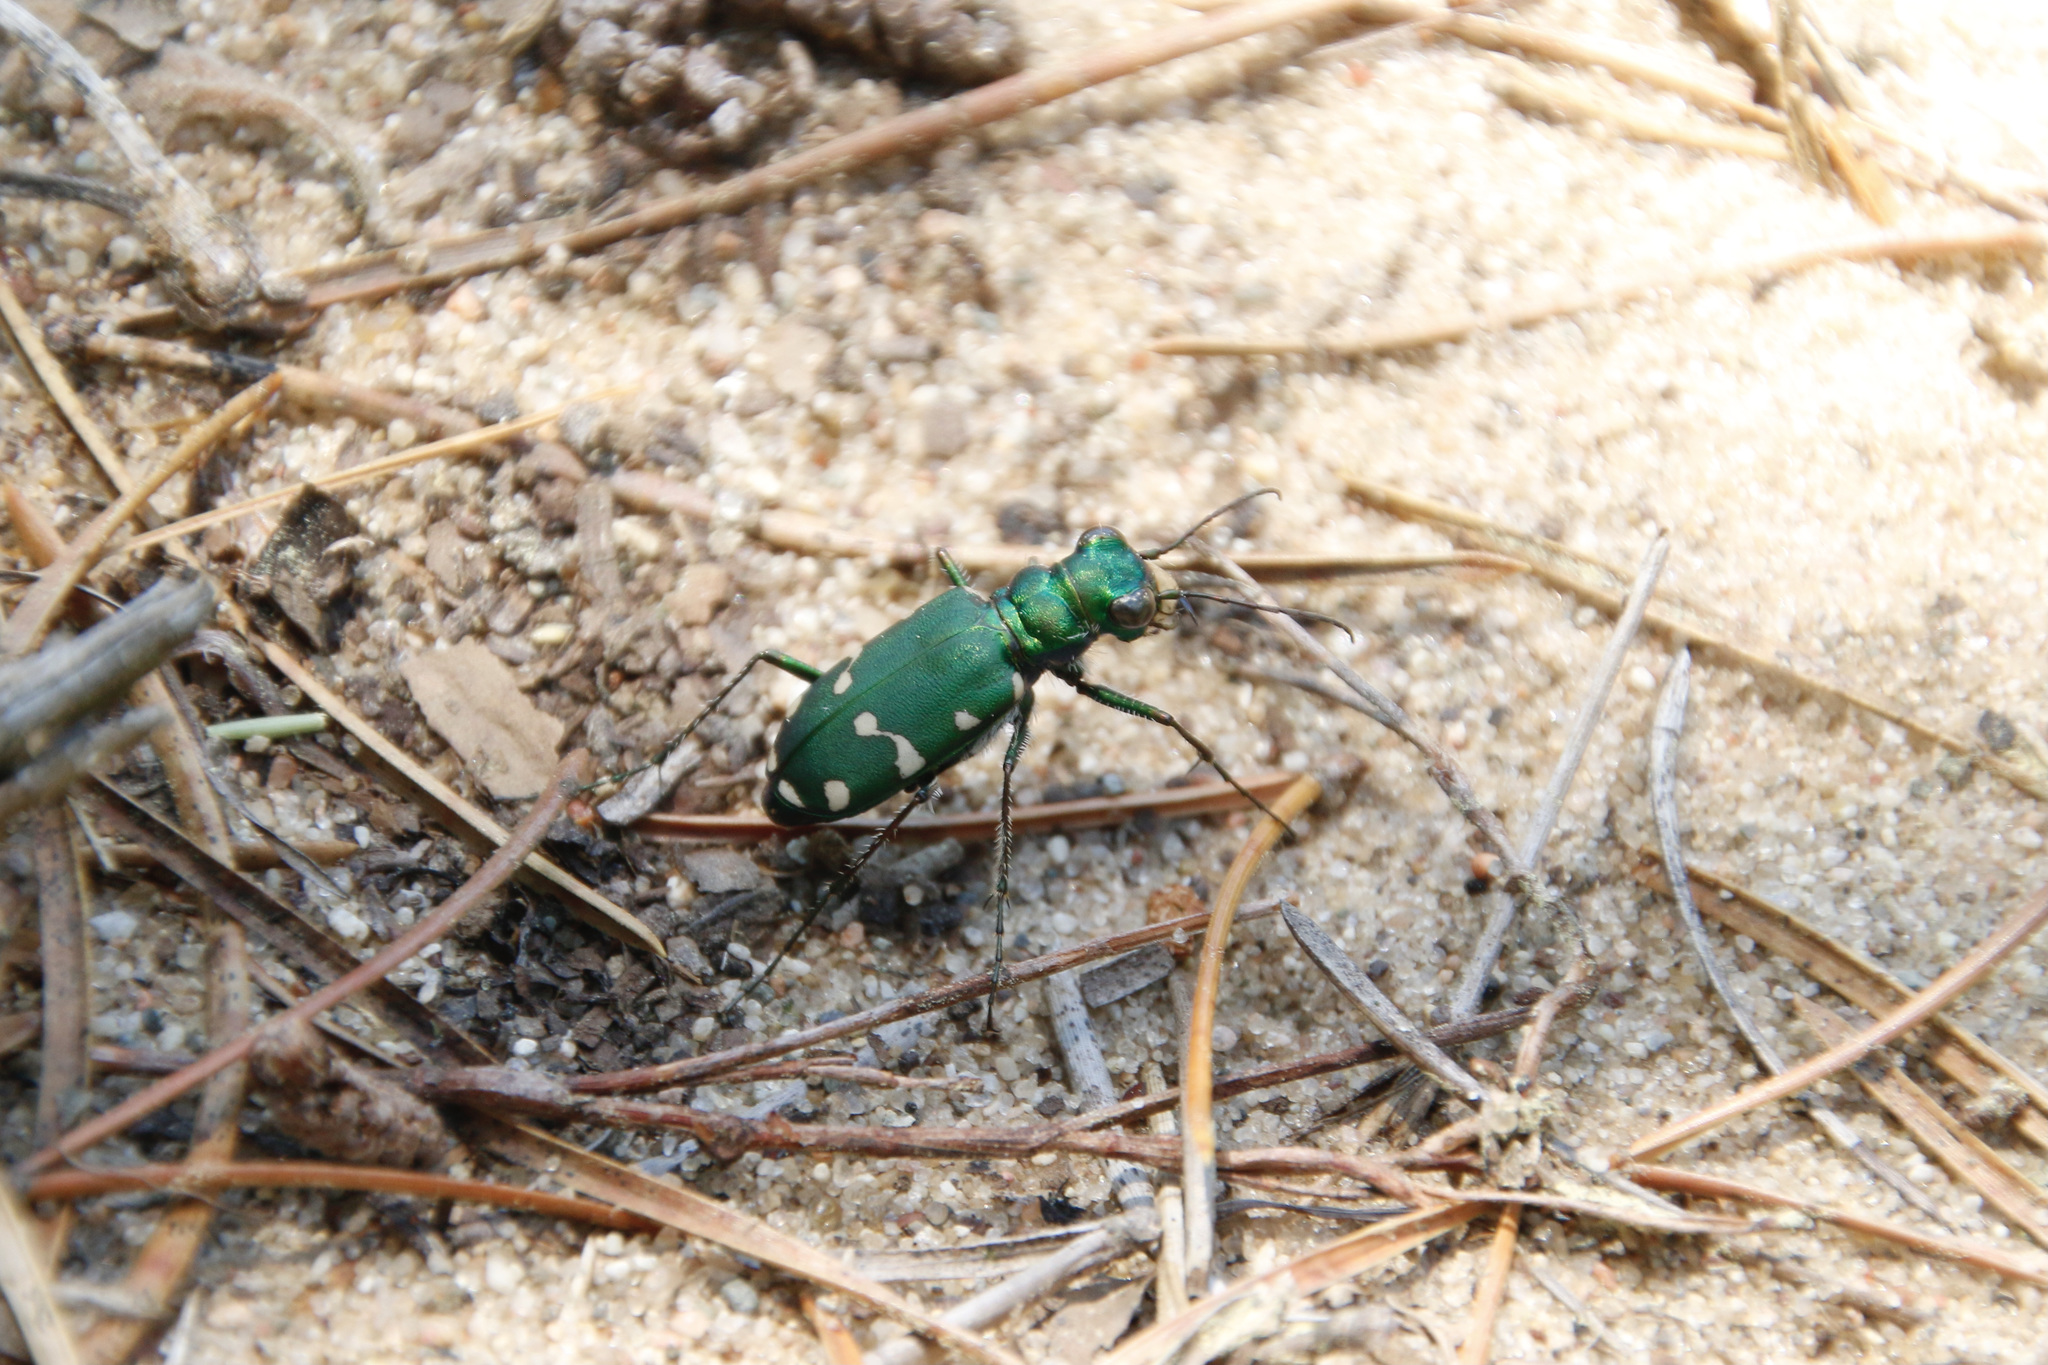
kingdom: Animalia
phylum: Arthropoda
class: Insecta
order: Coleoptera
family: Carabidae
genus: Cicindela
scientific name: Cicindela patruela
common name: Northern barrens tiger beetle
